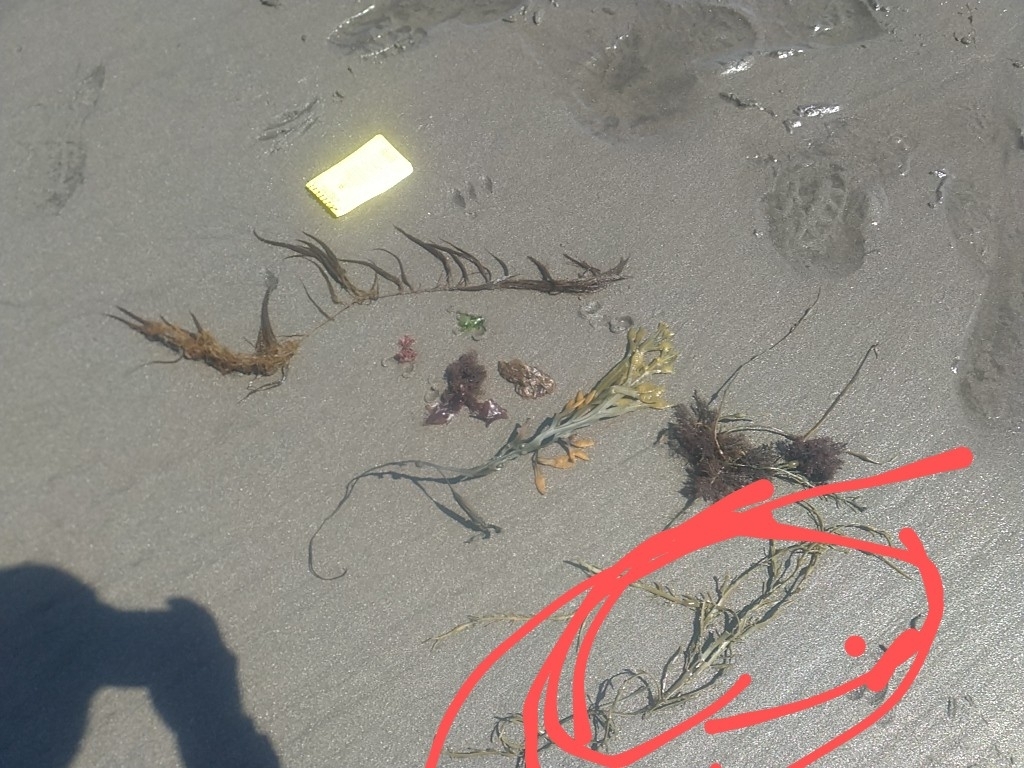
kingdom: Chromista
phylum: Ochrophyta
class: Phaeophyceae
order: Fucales
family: Fucaceae
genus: Ascophyllum
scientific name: Ascophyllum nodosum
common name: Knotted wrack
